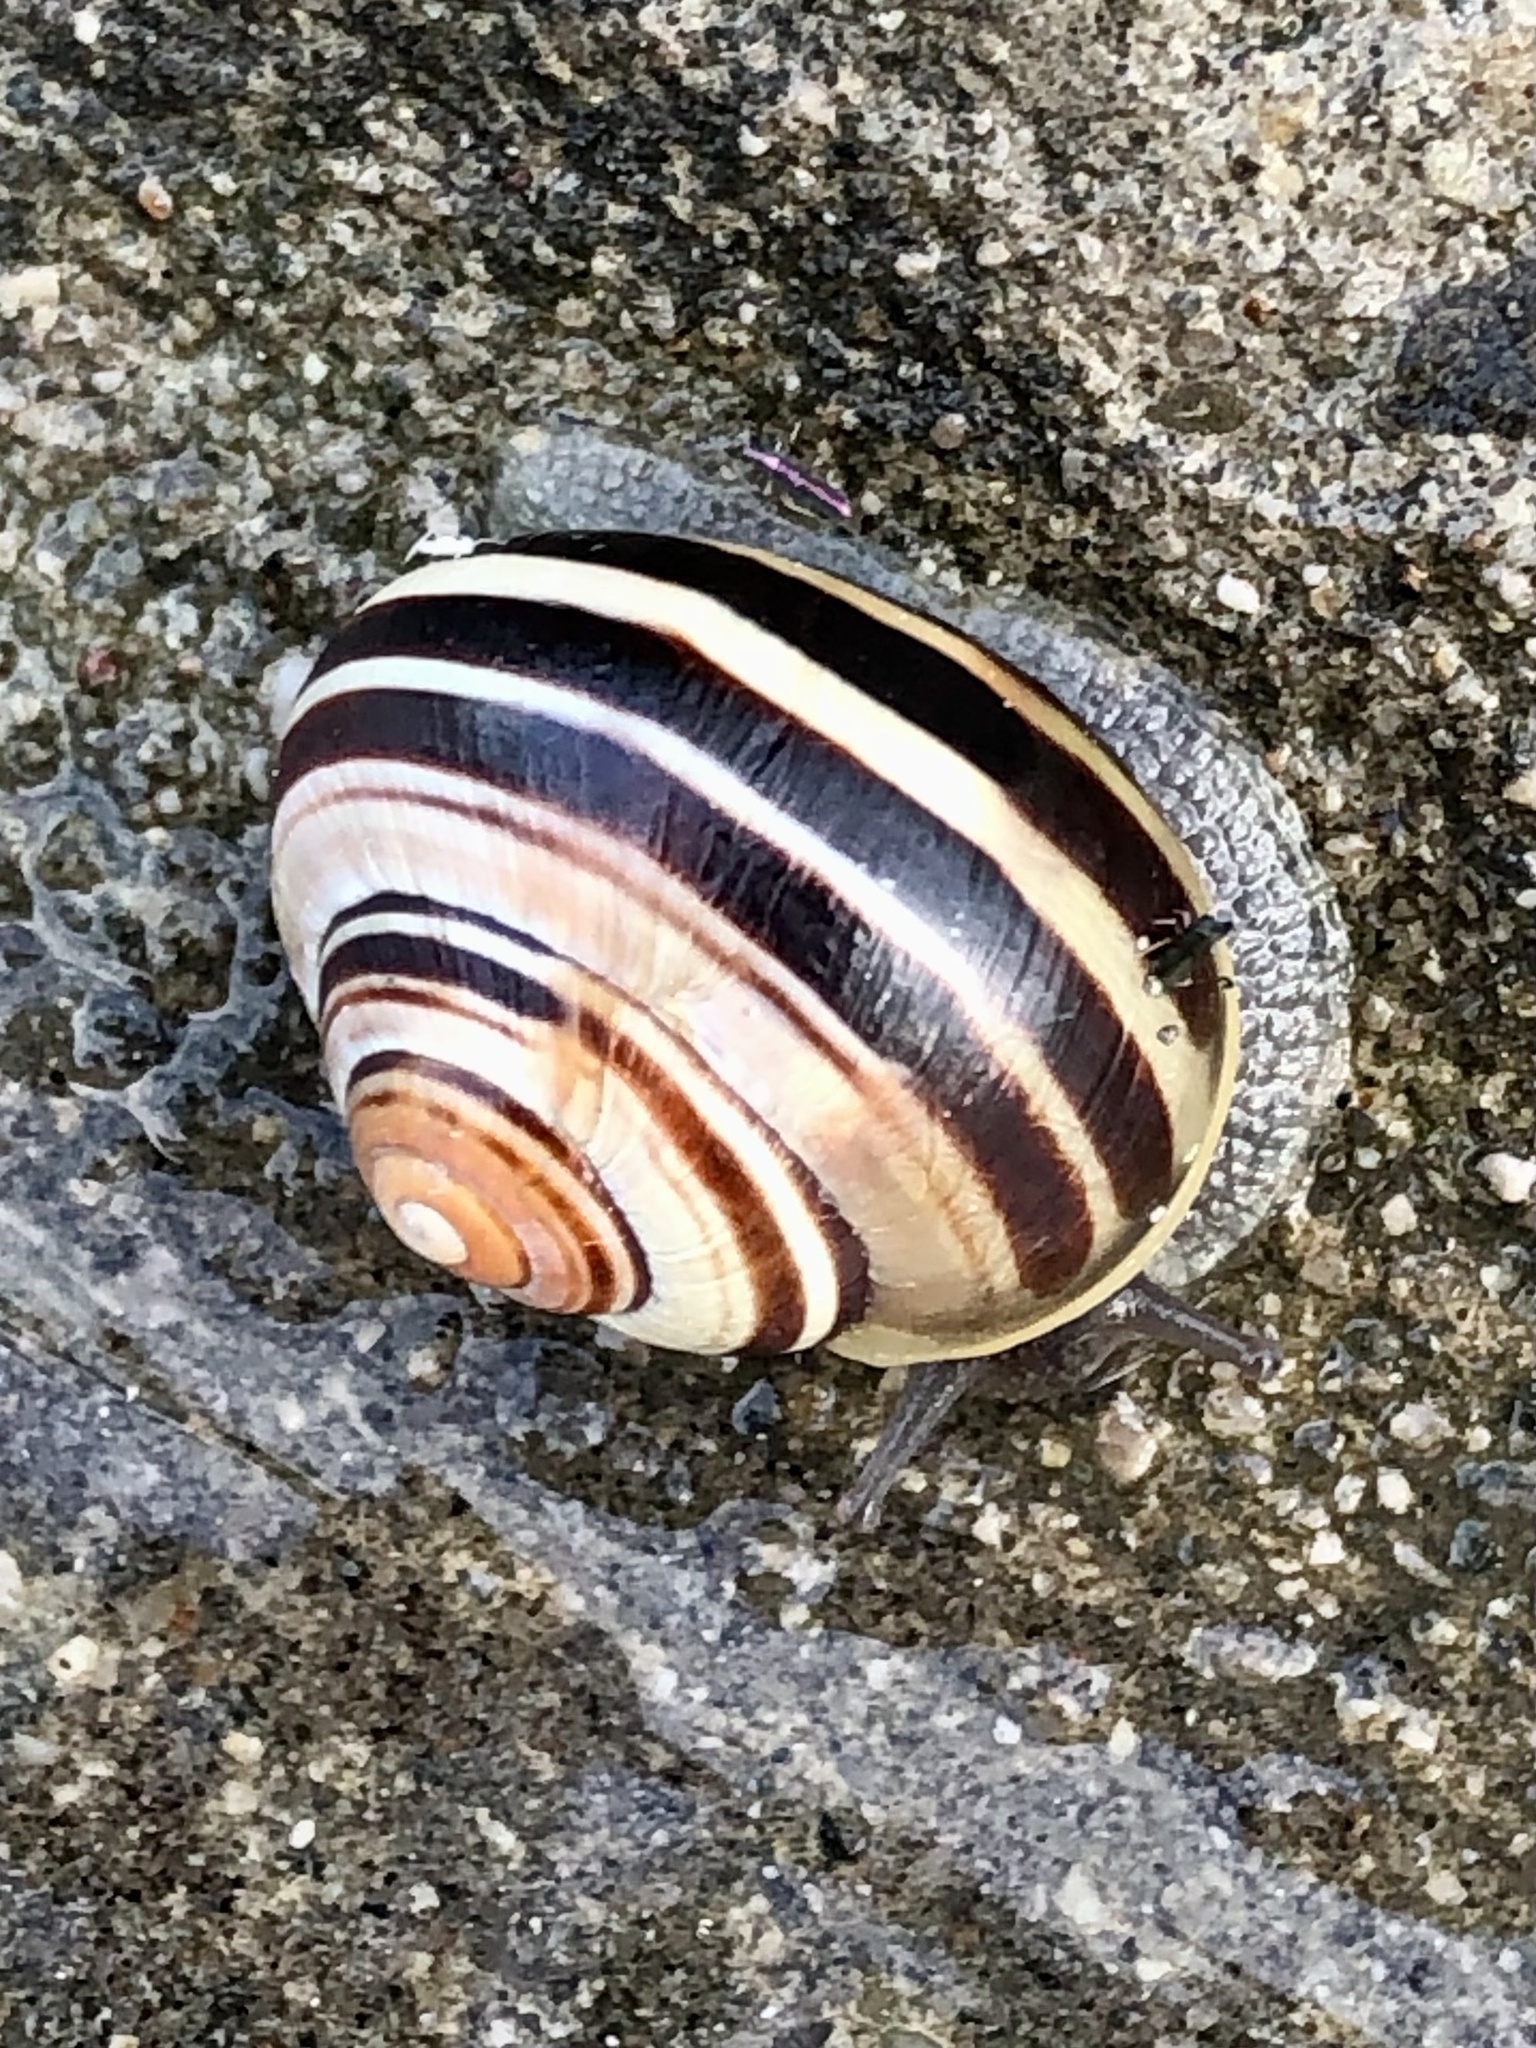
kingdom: Animalia
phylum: Mollusca
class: Gastropoda
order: Stylommatophora
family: Helicidae
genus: Cepaea
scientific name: Cepaea nemoralis
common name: Grovesnail
